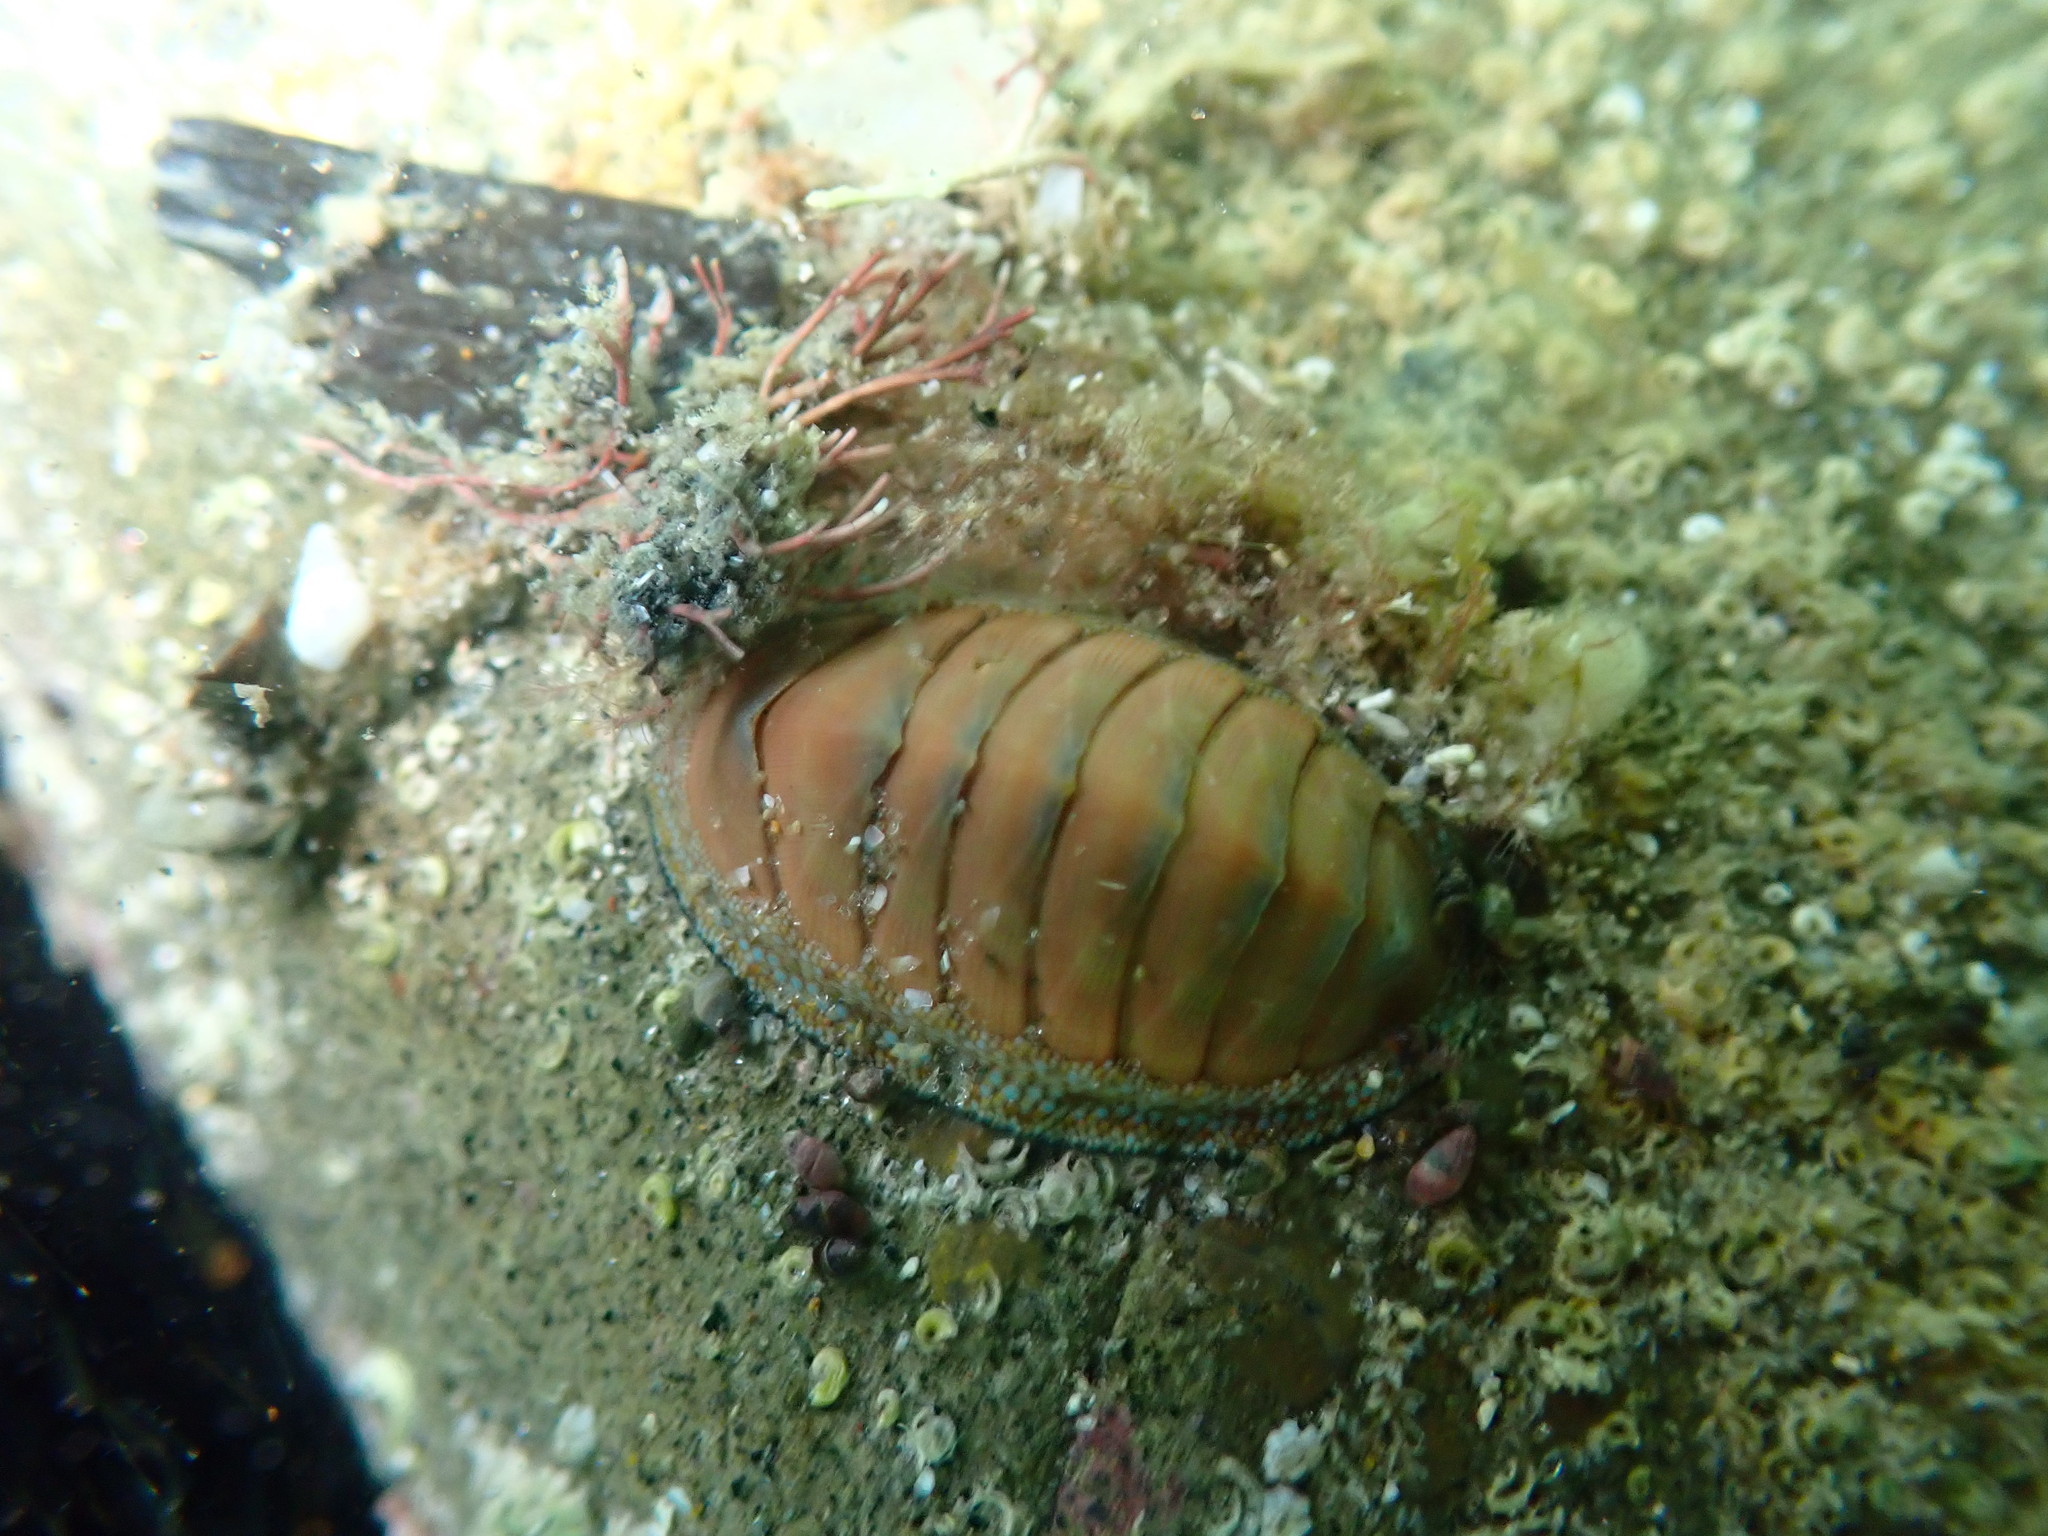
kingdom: Animalia
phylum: Mollusca
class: Polyplacophora
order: Chitonida
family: Chitonidae
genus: Chiton
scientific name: Chiton glaucus
